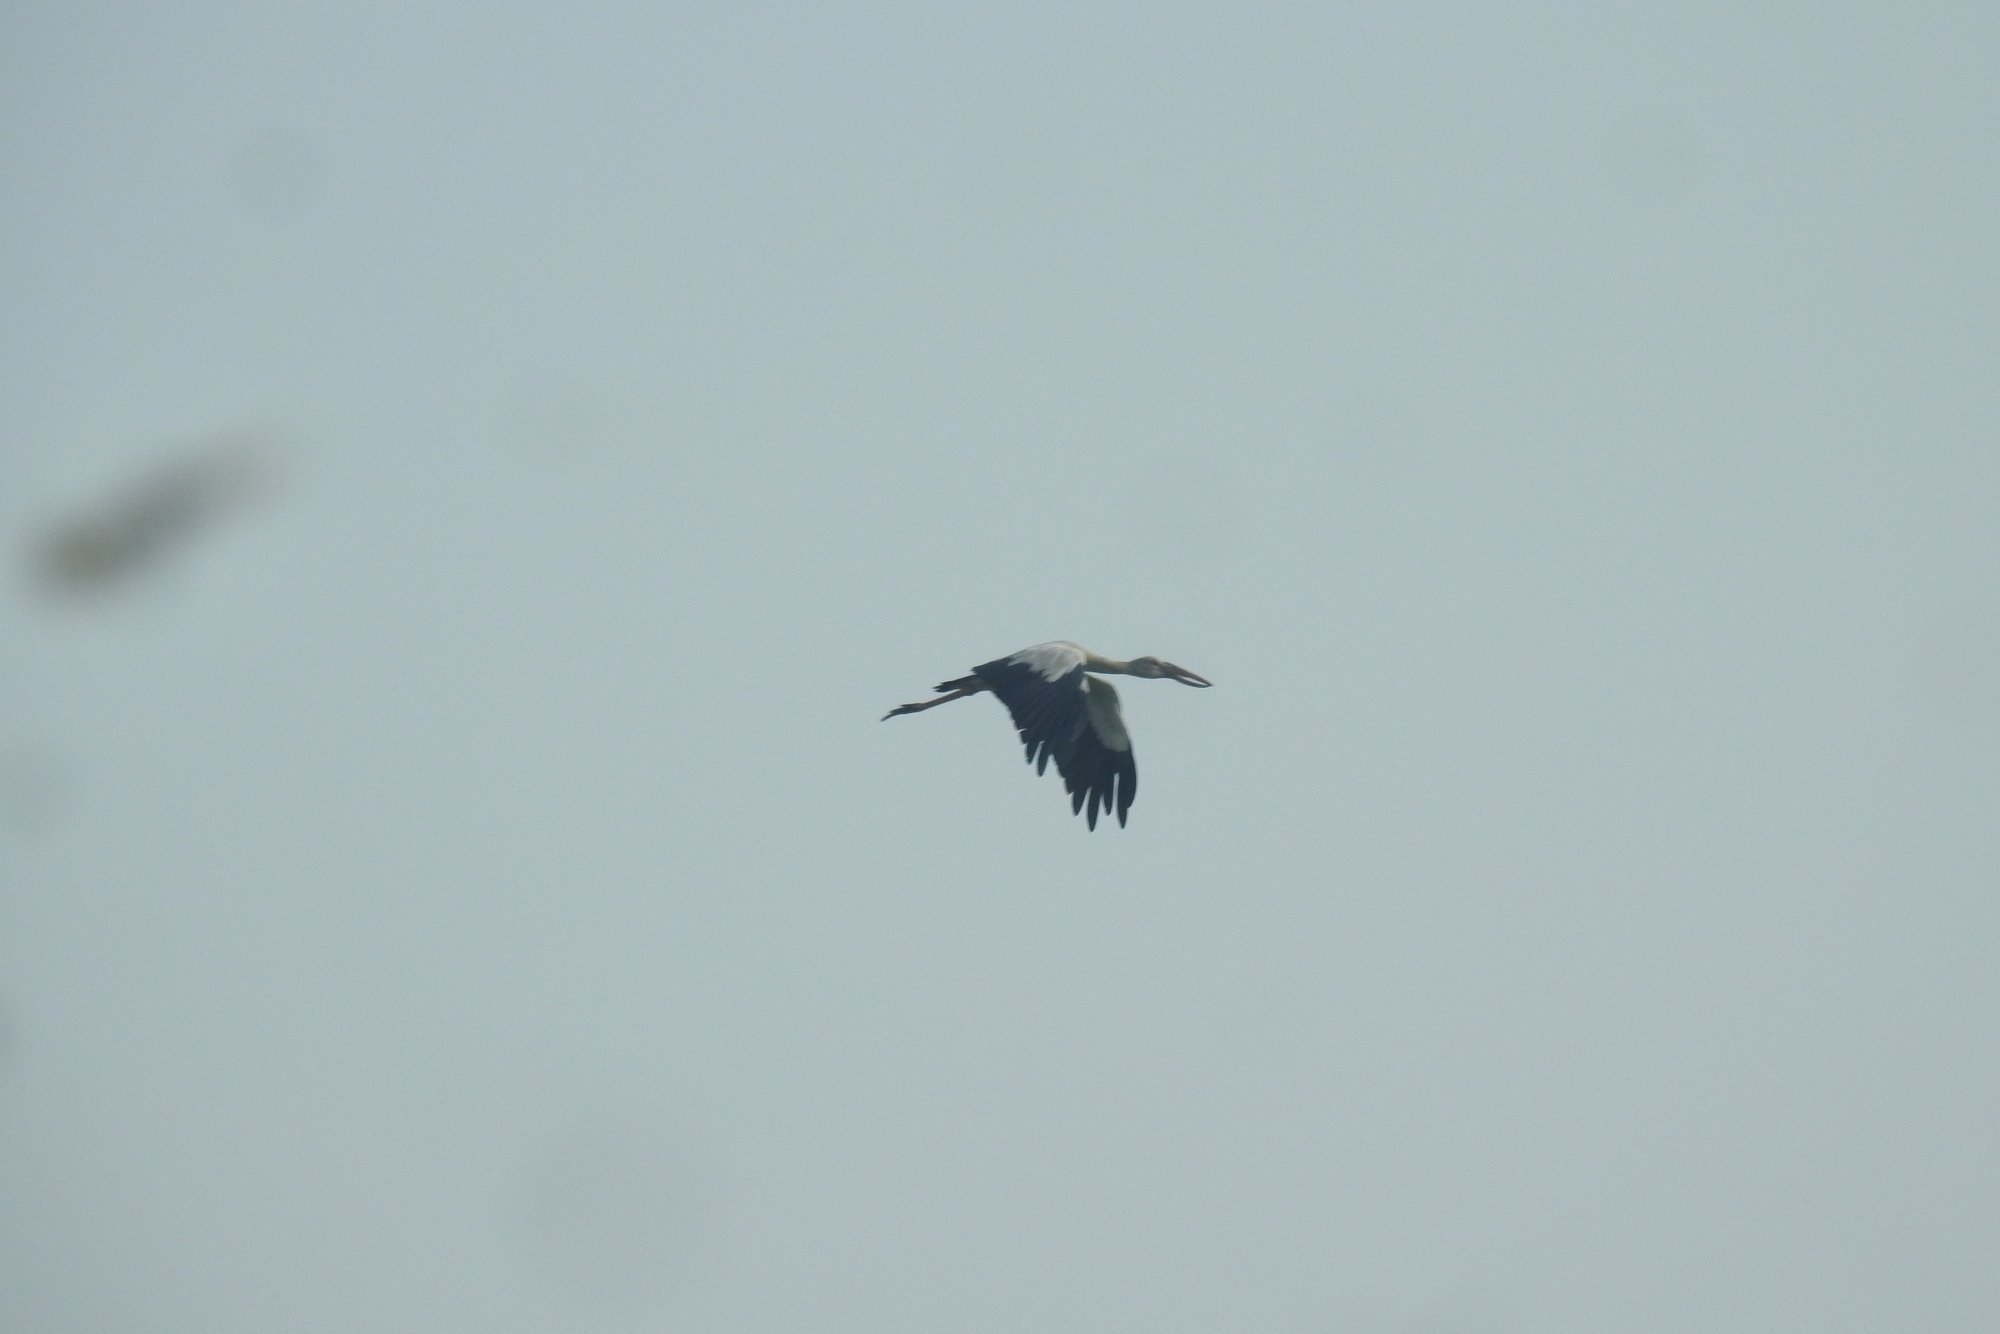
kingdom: Animalia
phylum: Chordata
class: Aves
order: Ciconiiformes
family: Ciconiidae
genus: Anastomus
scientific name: Anastomus oscitans
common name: Asian openbill
